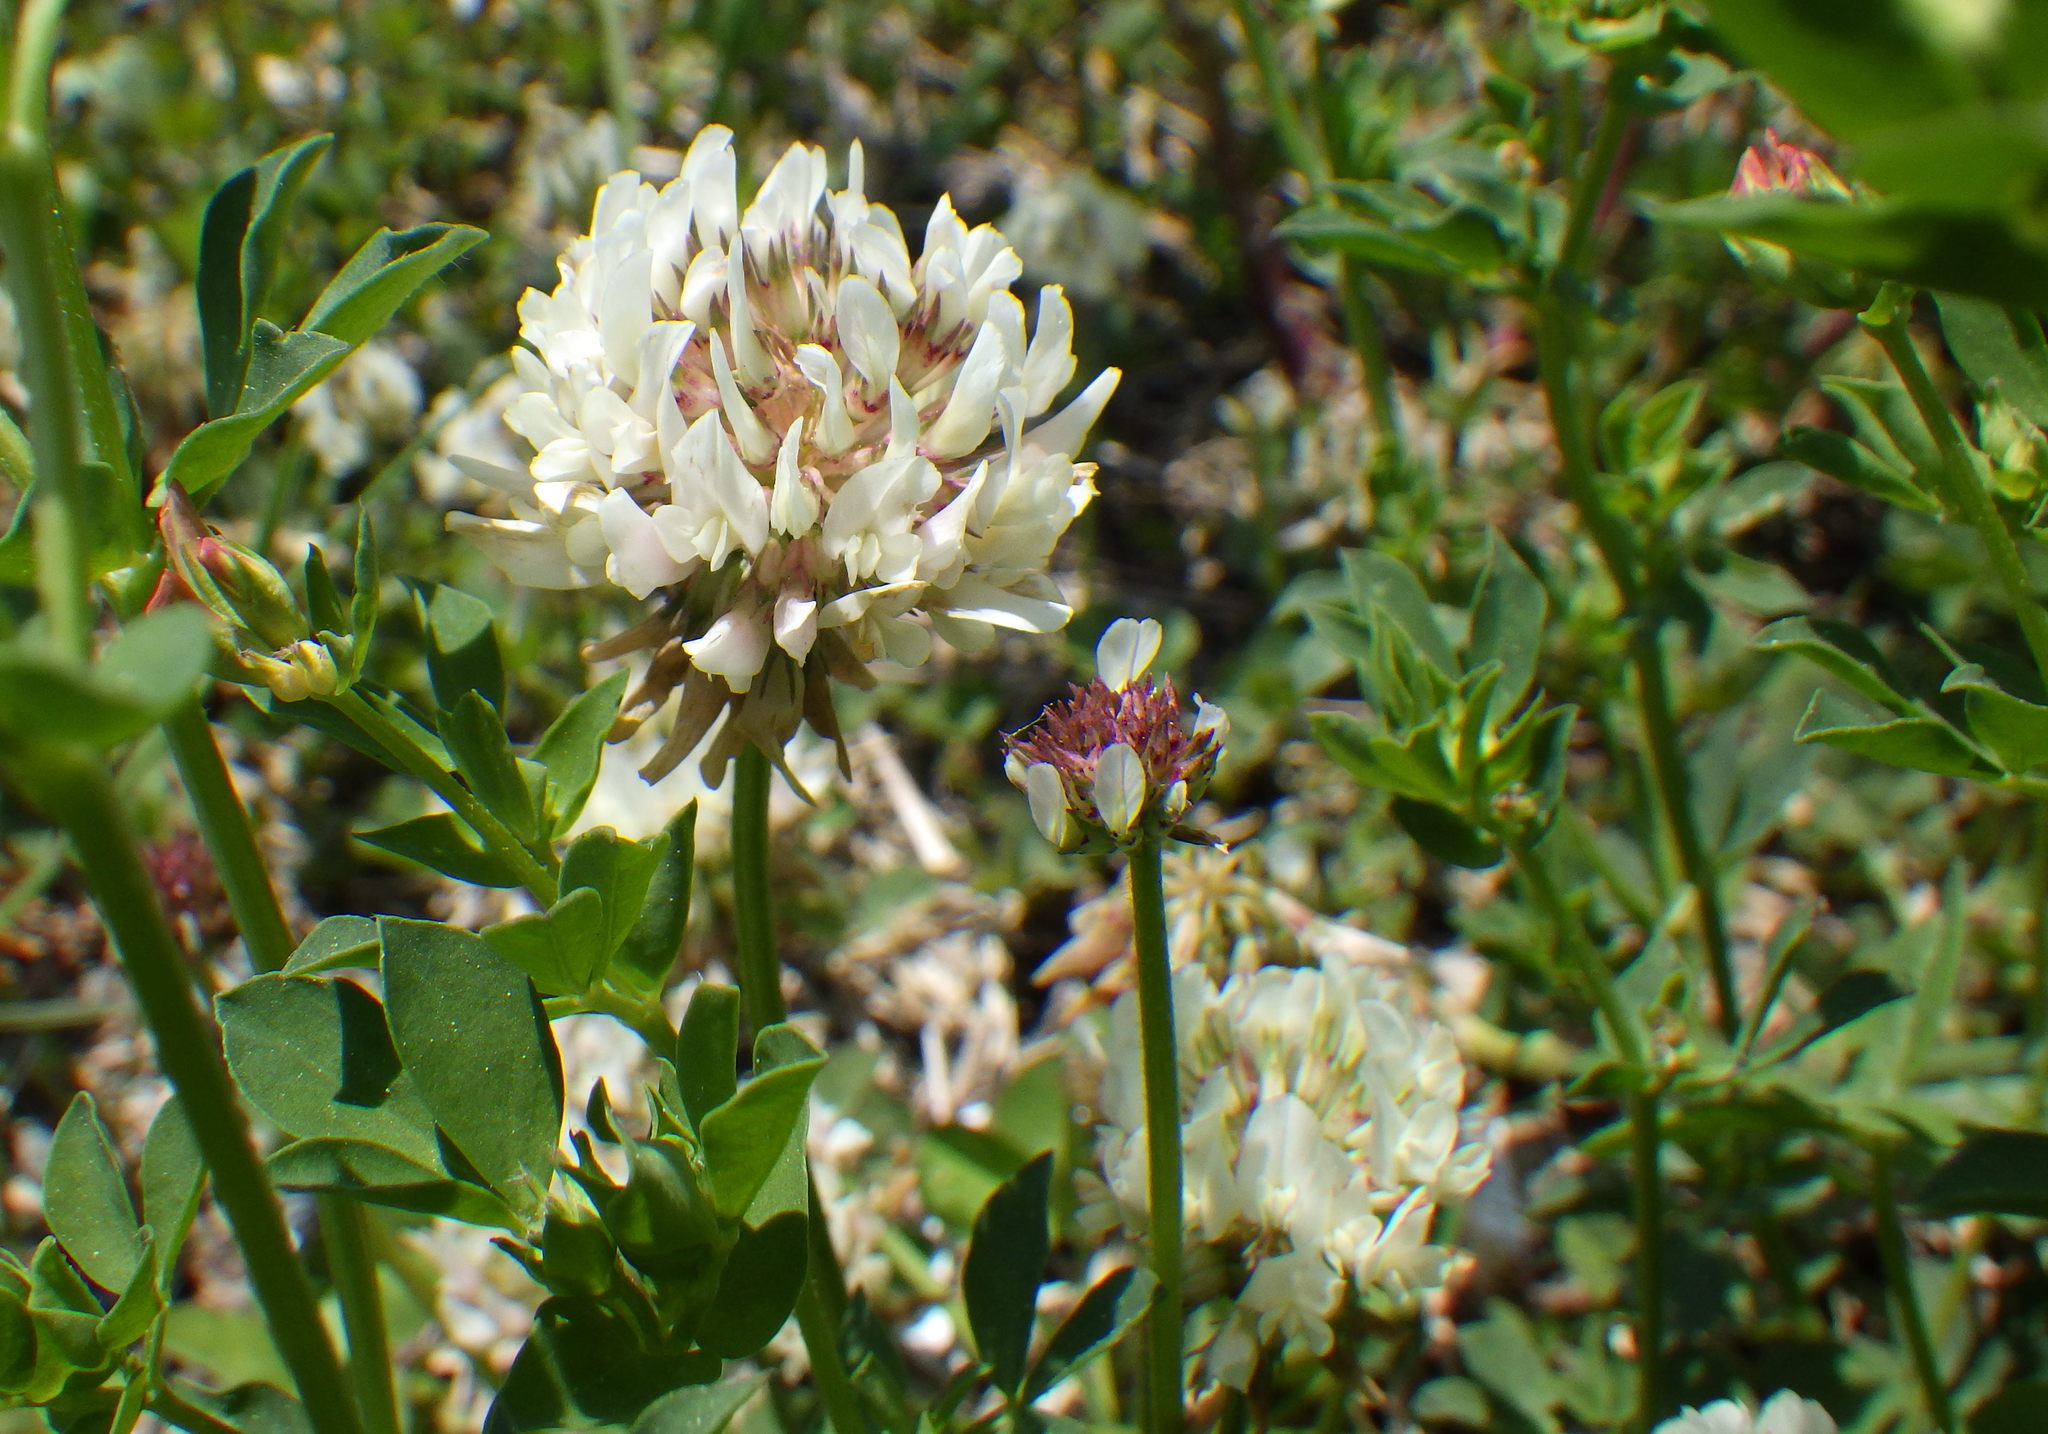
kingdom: Plantae
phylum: Tracheophyta
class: Magnoliopsida
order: Fabales
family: Fabaceae
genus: Trifolium
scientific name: Trifolium repens
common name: White clover
